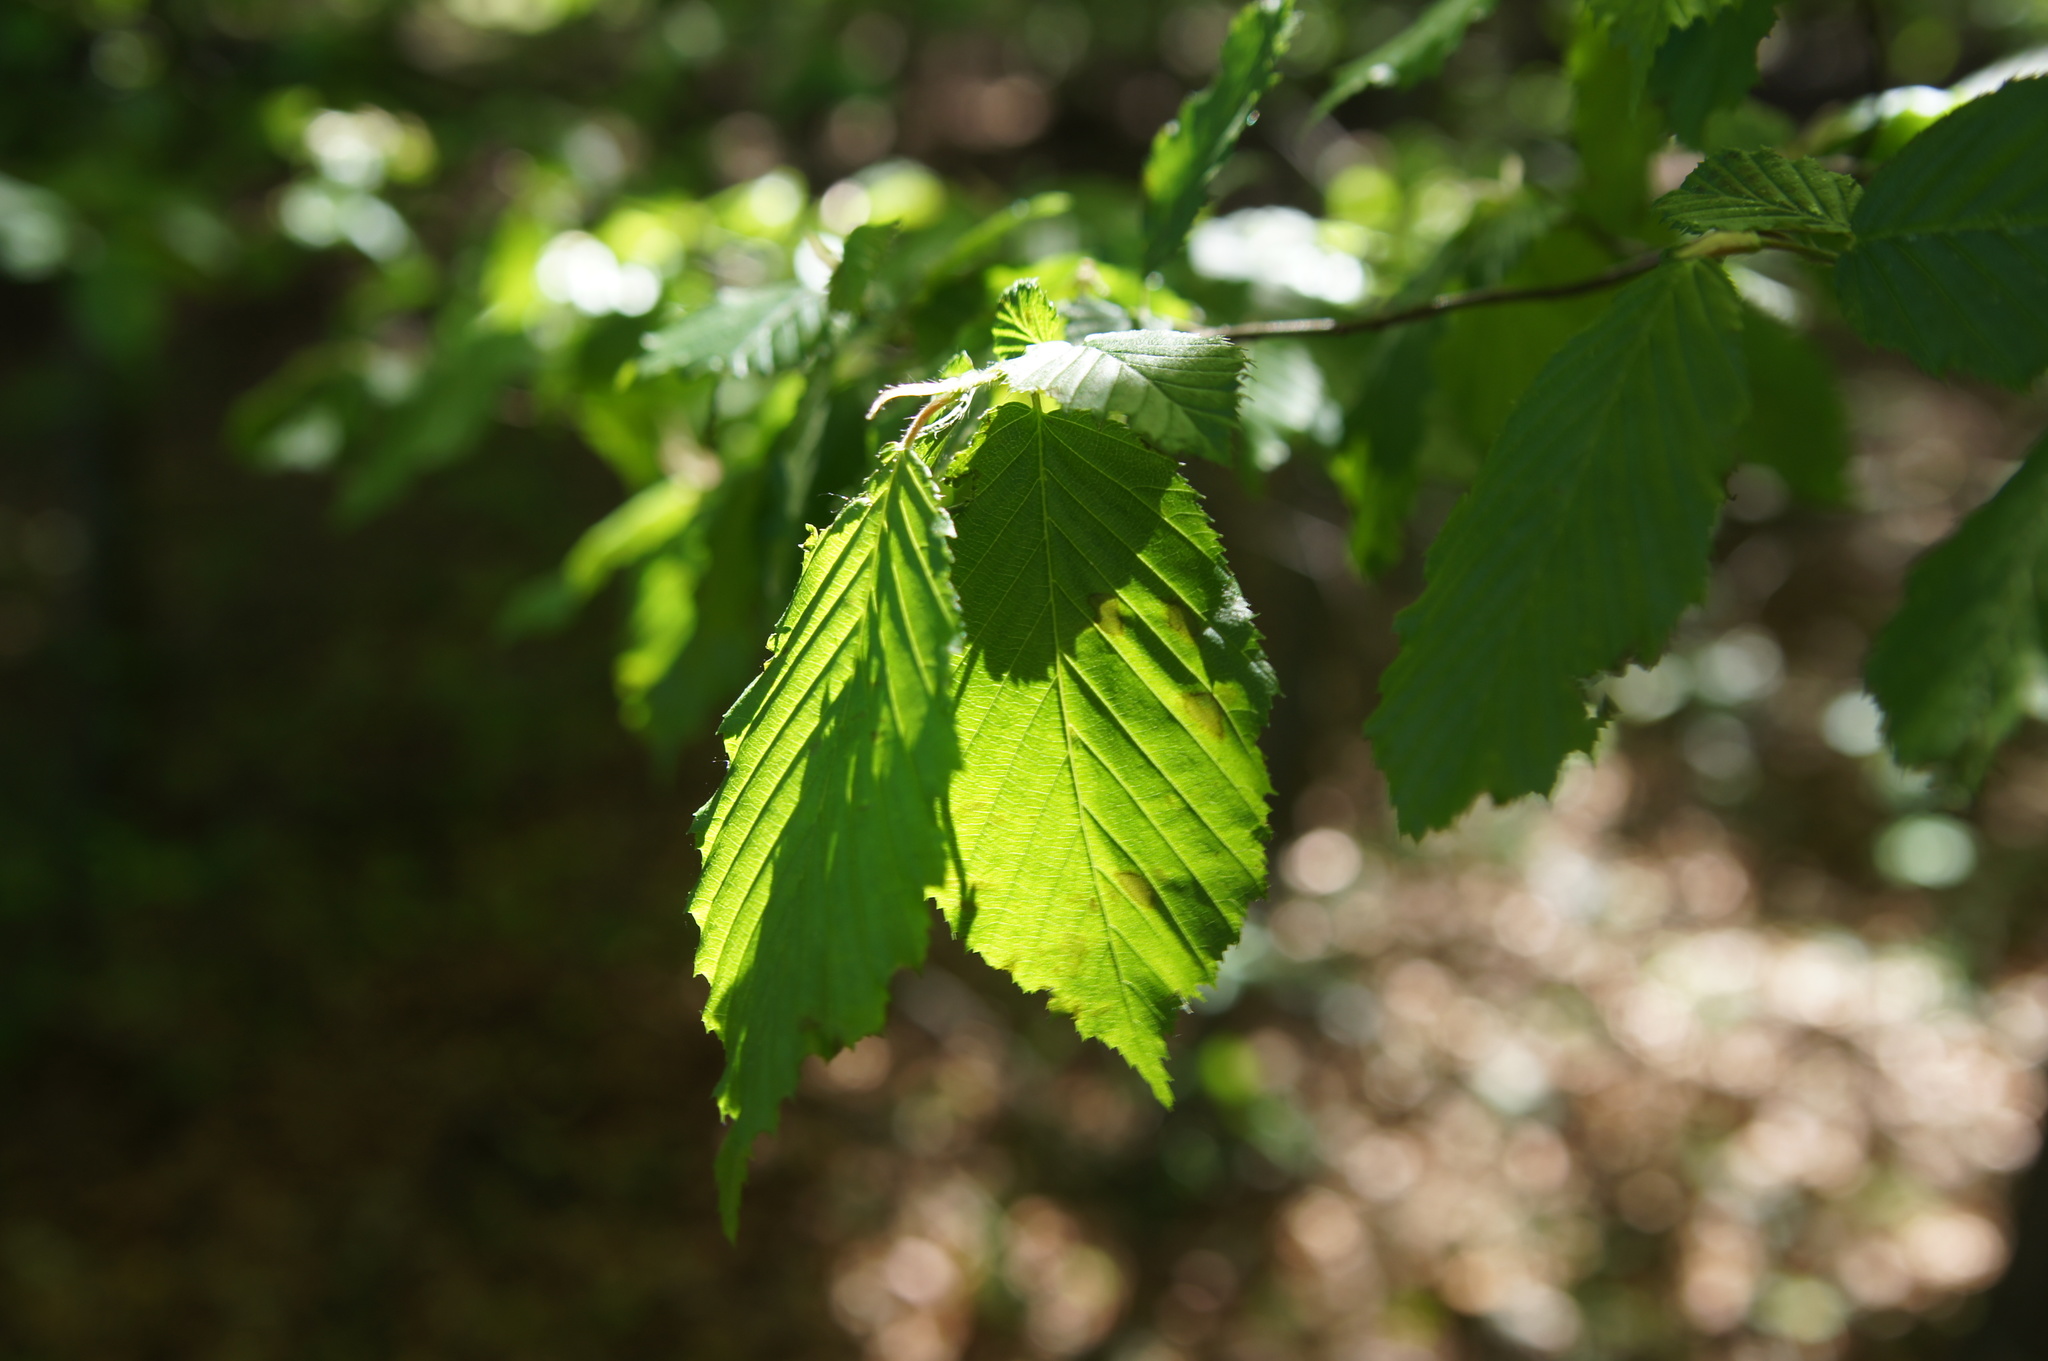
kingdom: Plantae
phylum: Tracheophyta
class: Magnoliopsida
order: Fagales
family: Betulaceae
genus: Carpinus
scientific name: Carpinus betulus
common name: Hornbeam
